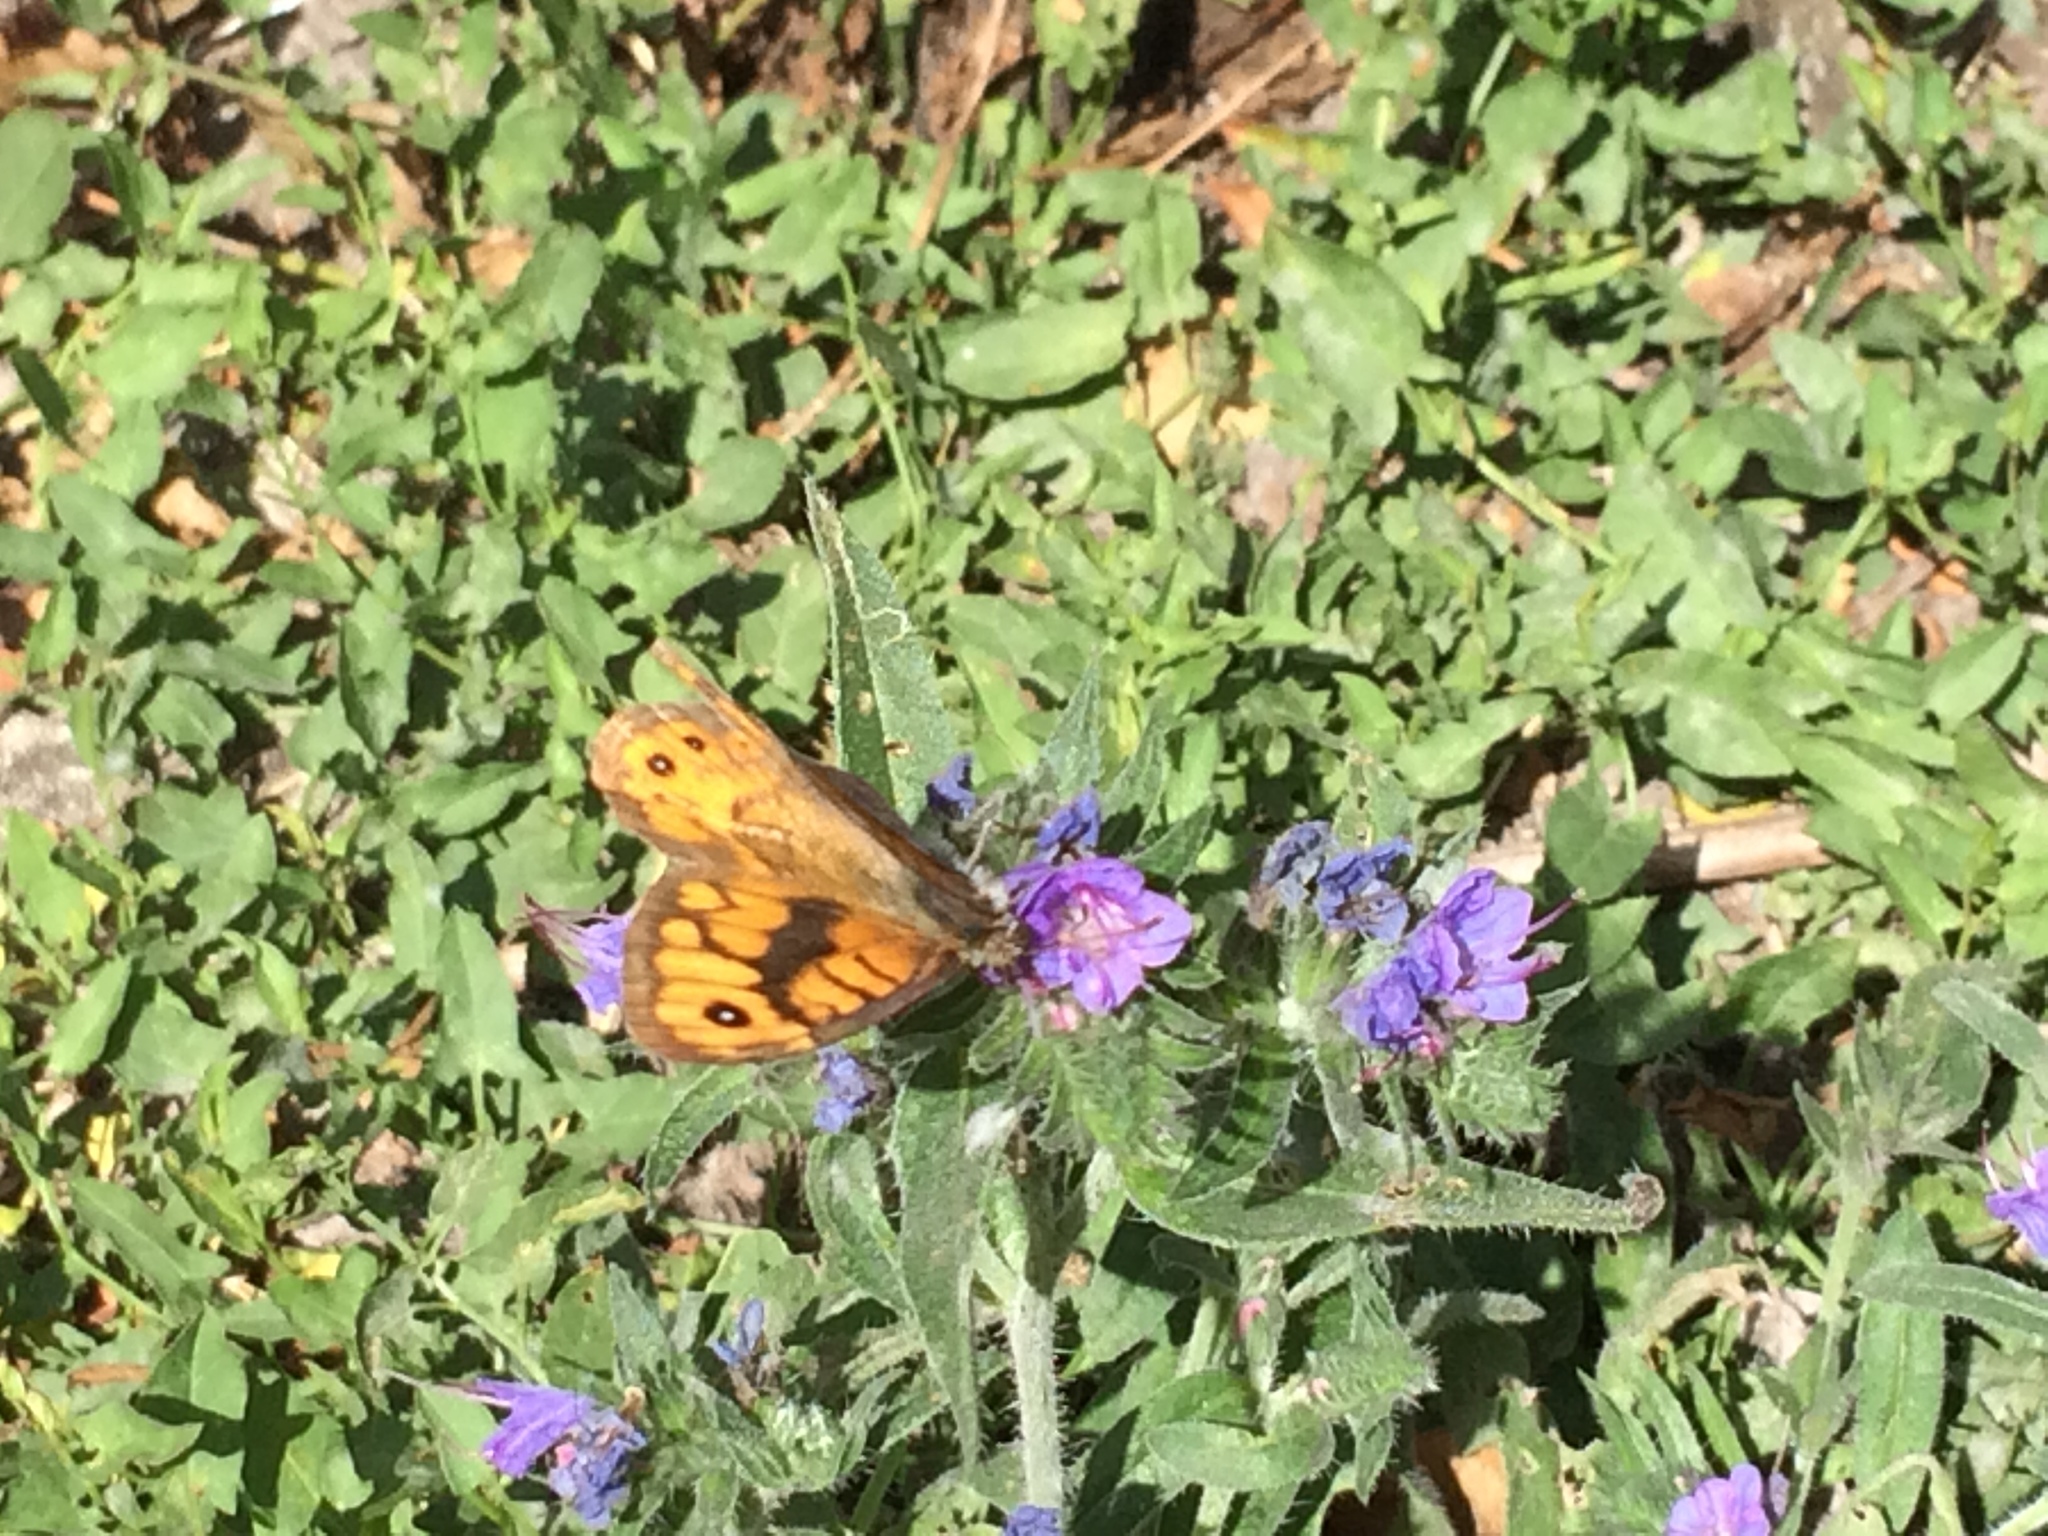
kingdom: Animalia
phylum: Arthropoda
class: Insecta
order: Lepidoptera
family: Nymphalidae
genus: Pararge
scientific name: Pararge Lasiommata megera
